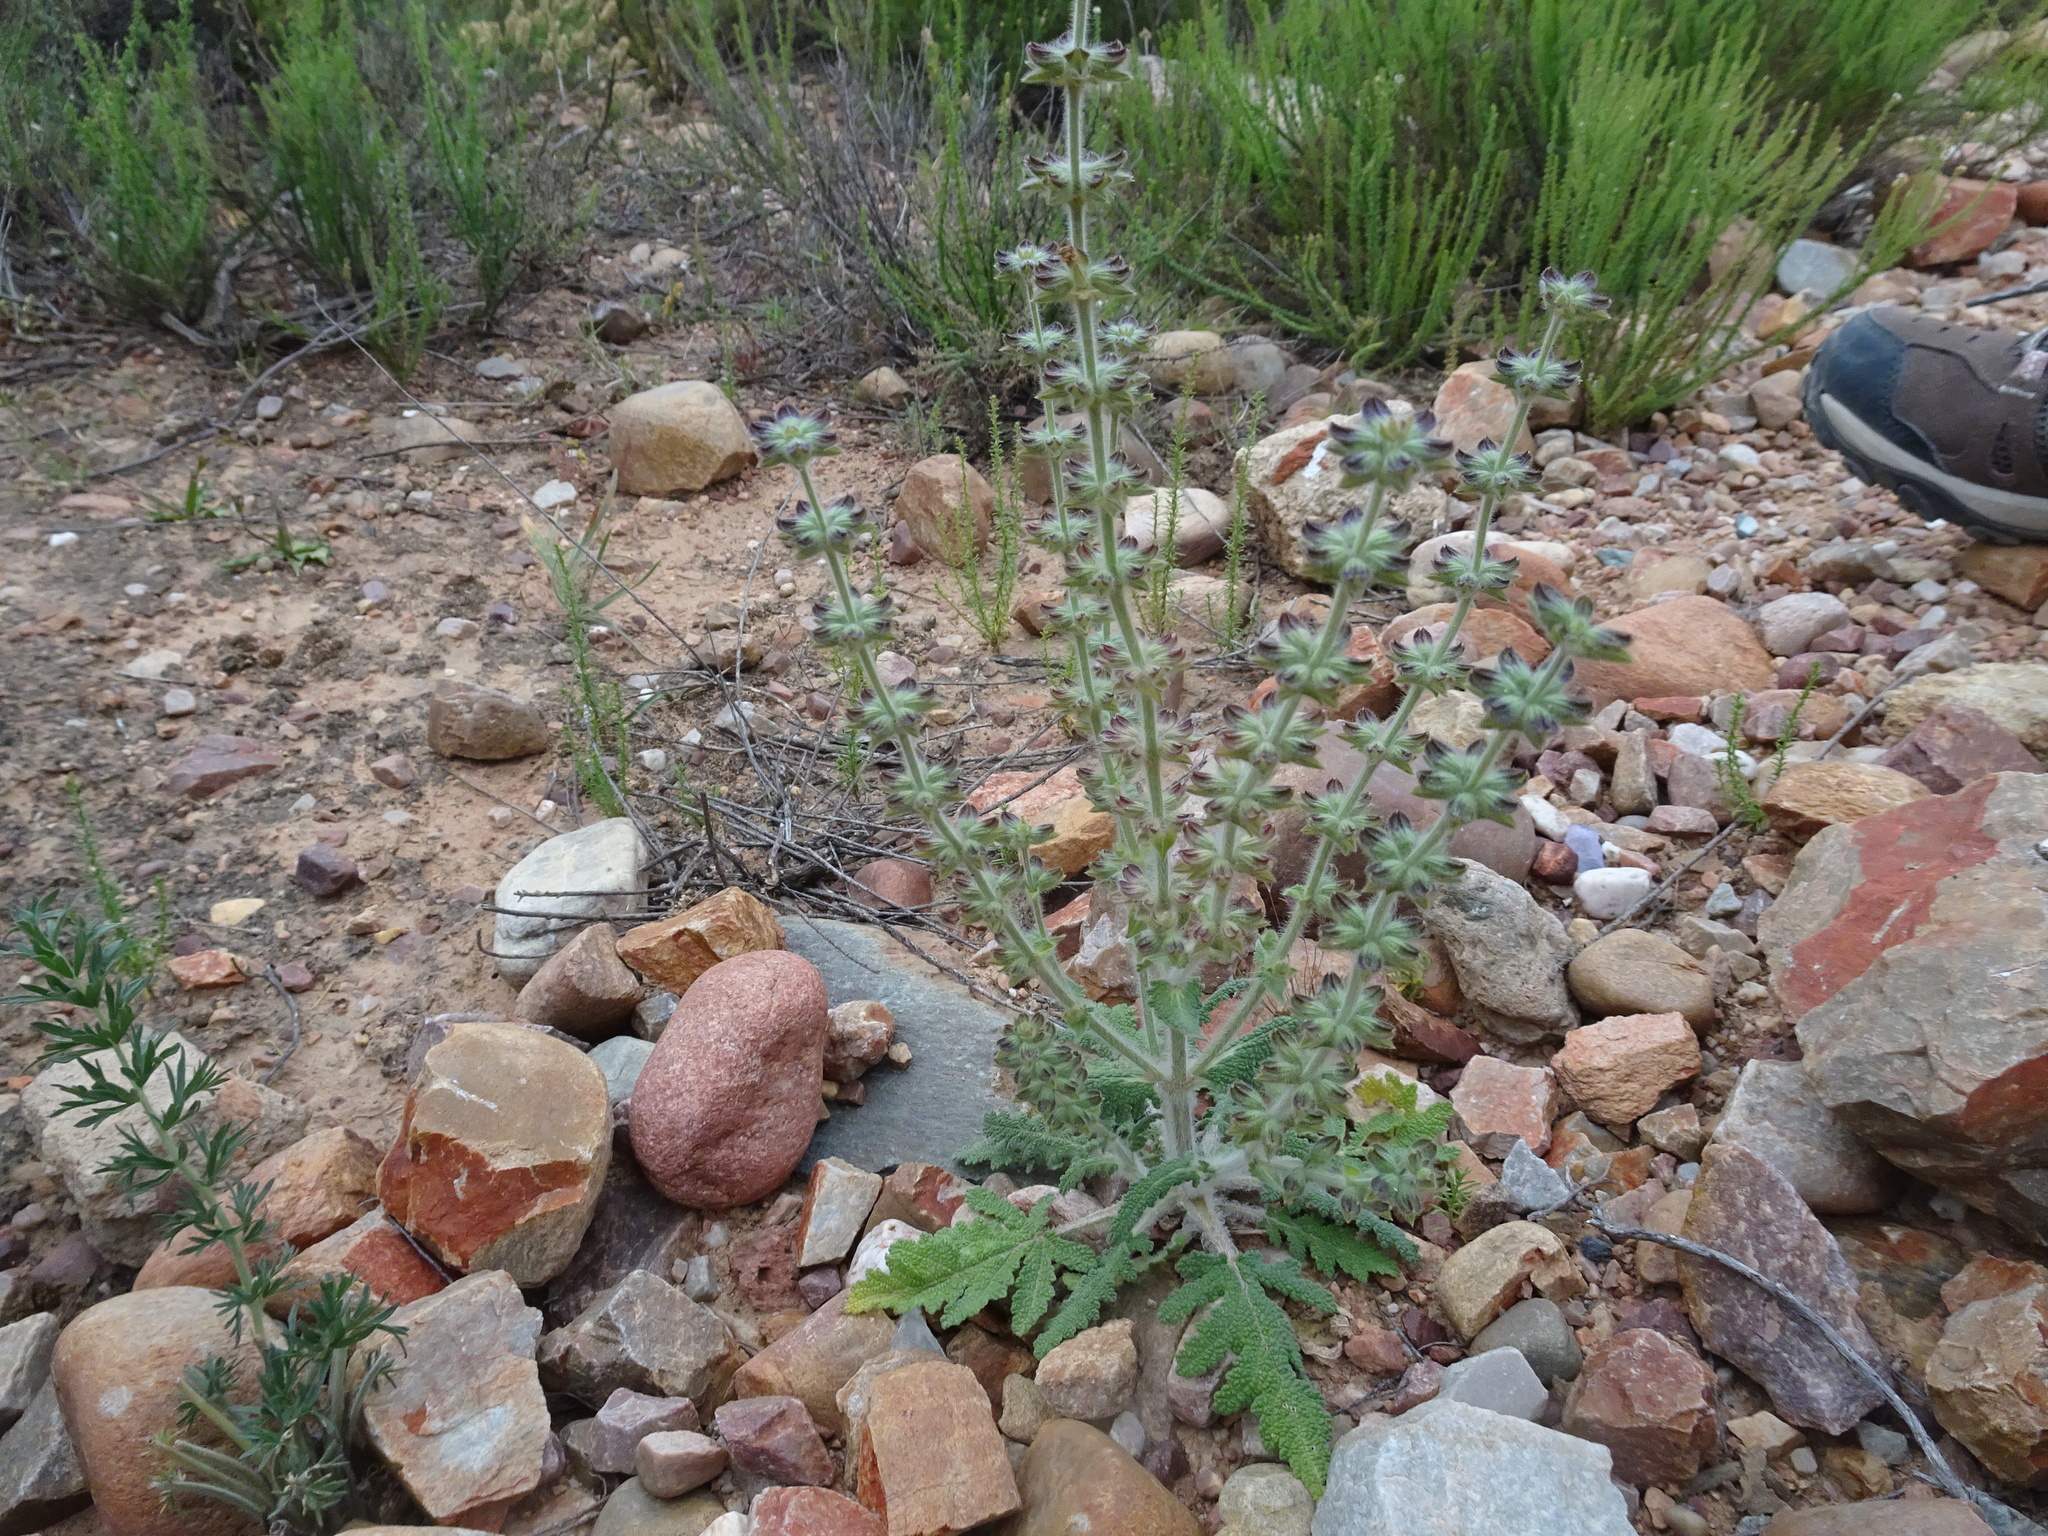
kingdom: Plantae
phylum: Tracheophyta
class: Magnoliopsida
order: Lamiales
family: Lamiaceae
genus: Salvia
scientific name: Salvia verbenaca
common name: Wild clary
